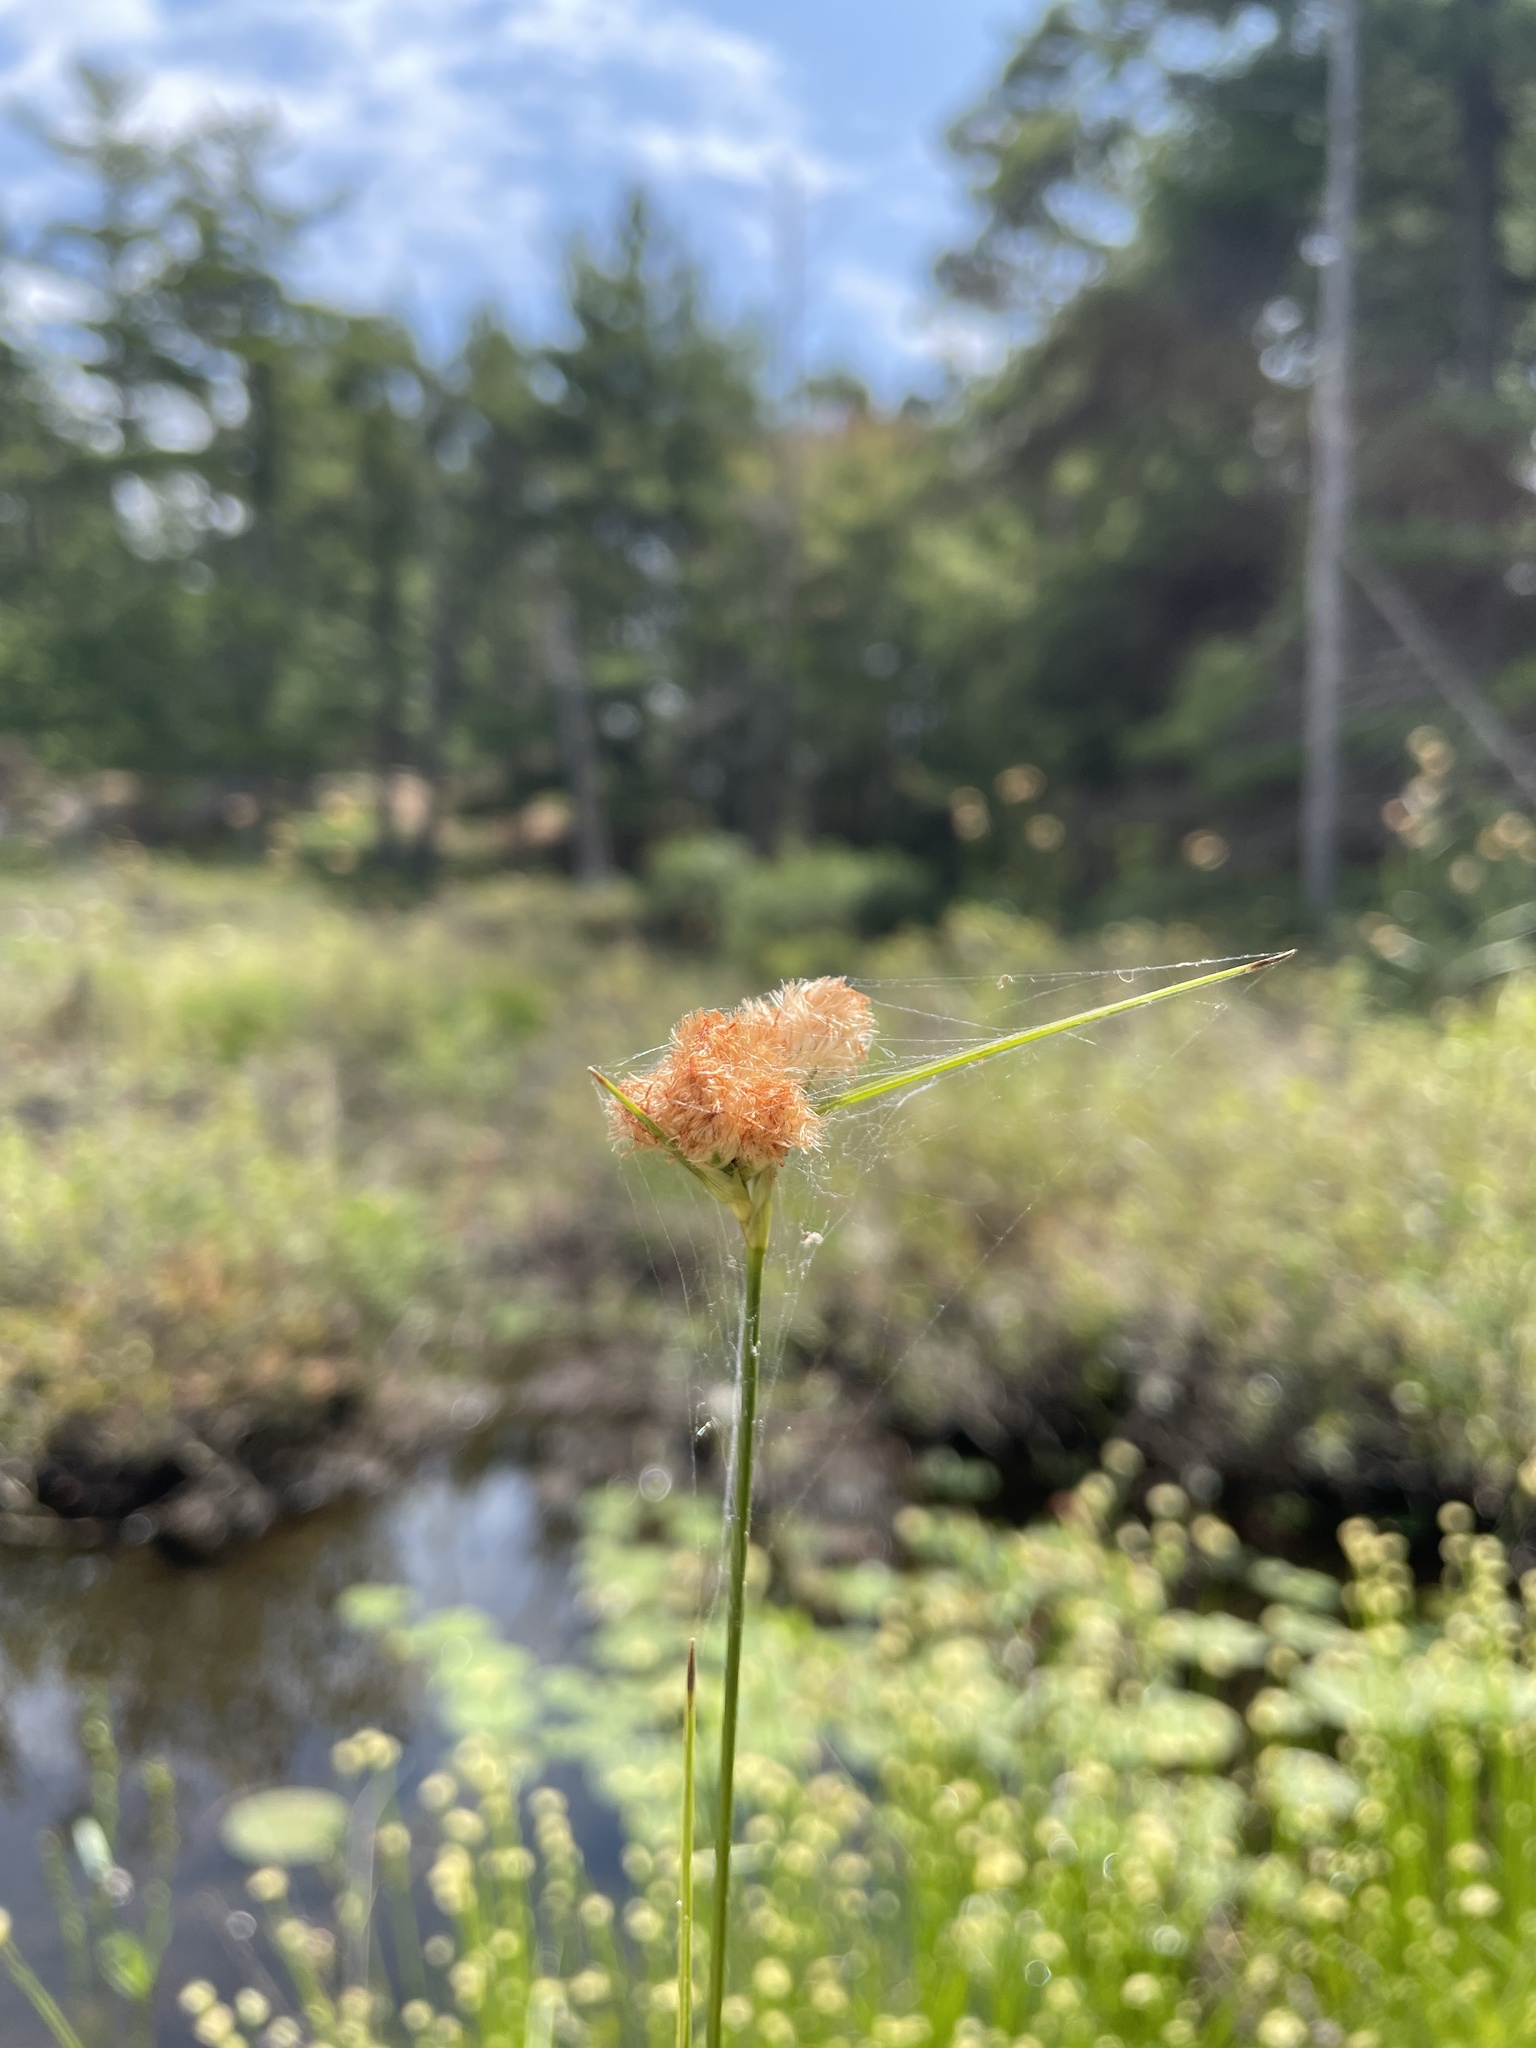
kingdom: Plantae
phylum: Tracheophyta
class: Liliopsida
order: Poales
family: Cyperaceae
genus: Eriophorum
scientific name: Eriophorum virginicum
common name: Tawny cottongrass
